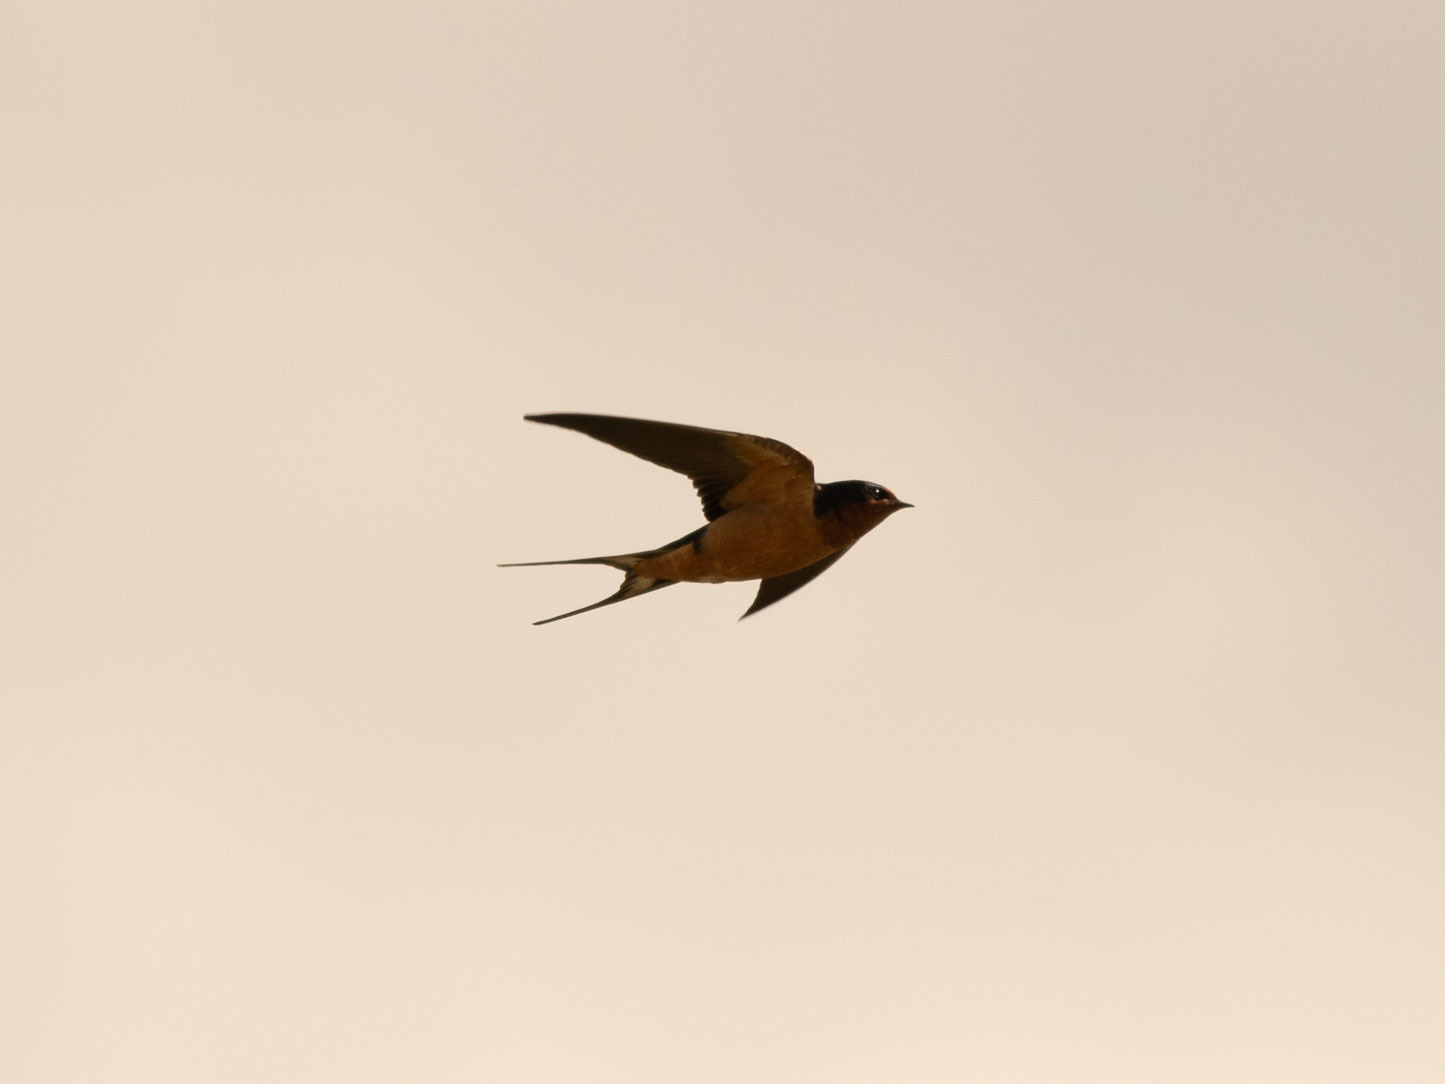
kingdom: Animalia
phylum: Chordata
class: Aves
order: Passeriformes
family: Hirundinidae
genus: Hirundo
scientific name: Hirundo rustica
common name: Barn swallow
